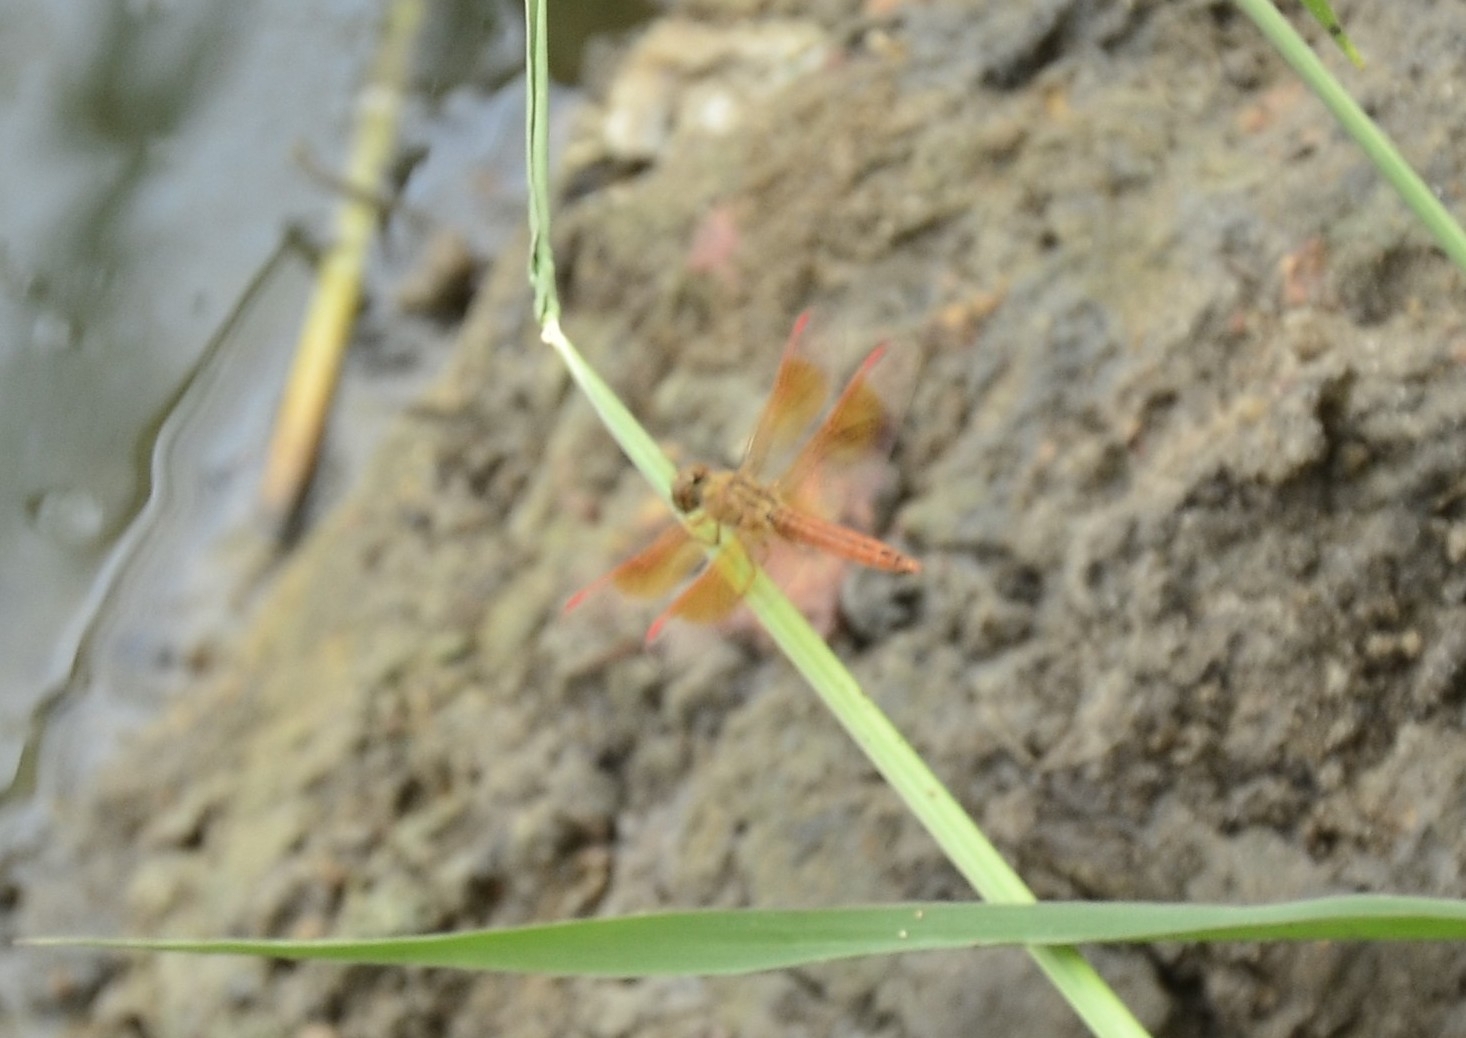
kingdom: Animalia
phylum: Arthropoda
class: Insecta
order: Odonata
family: Libellulidae
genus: Brachythemis
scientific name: Brachythemis contaminata
